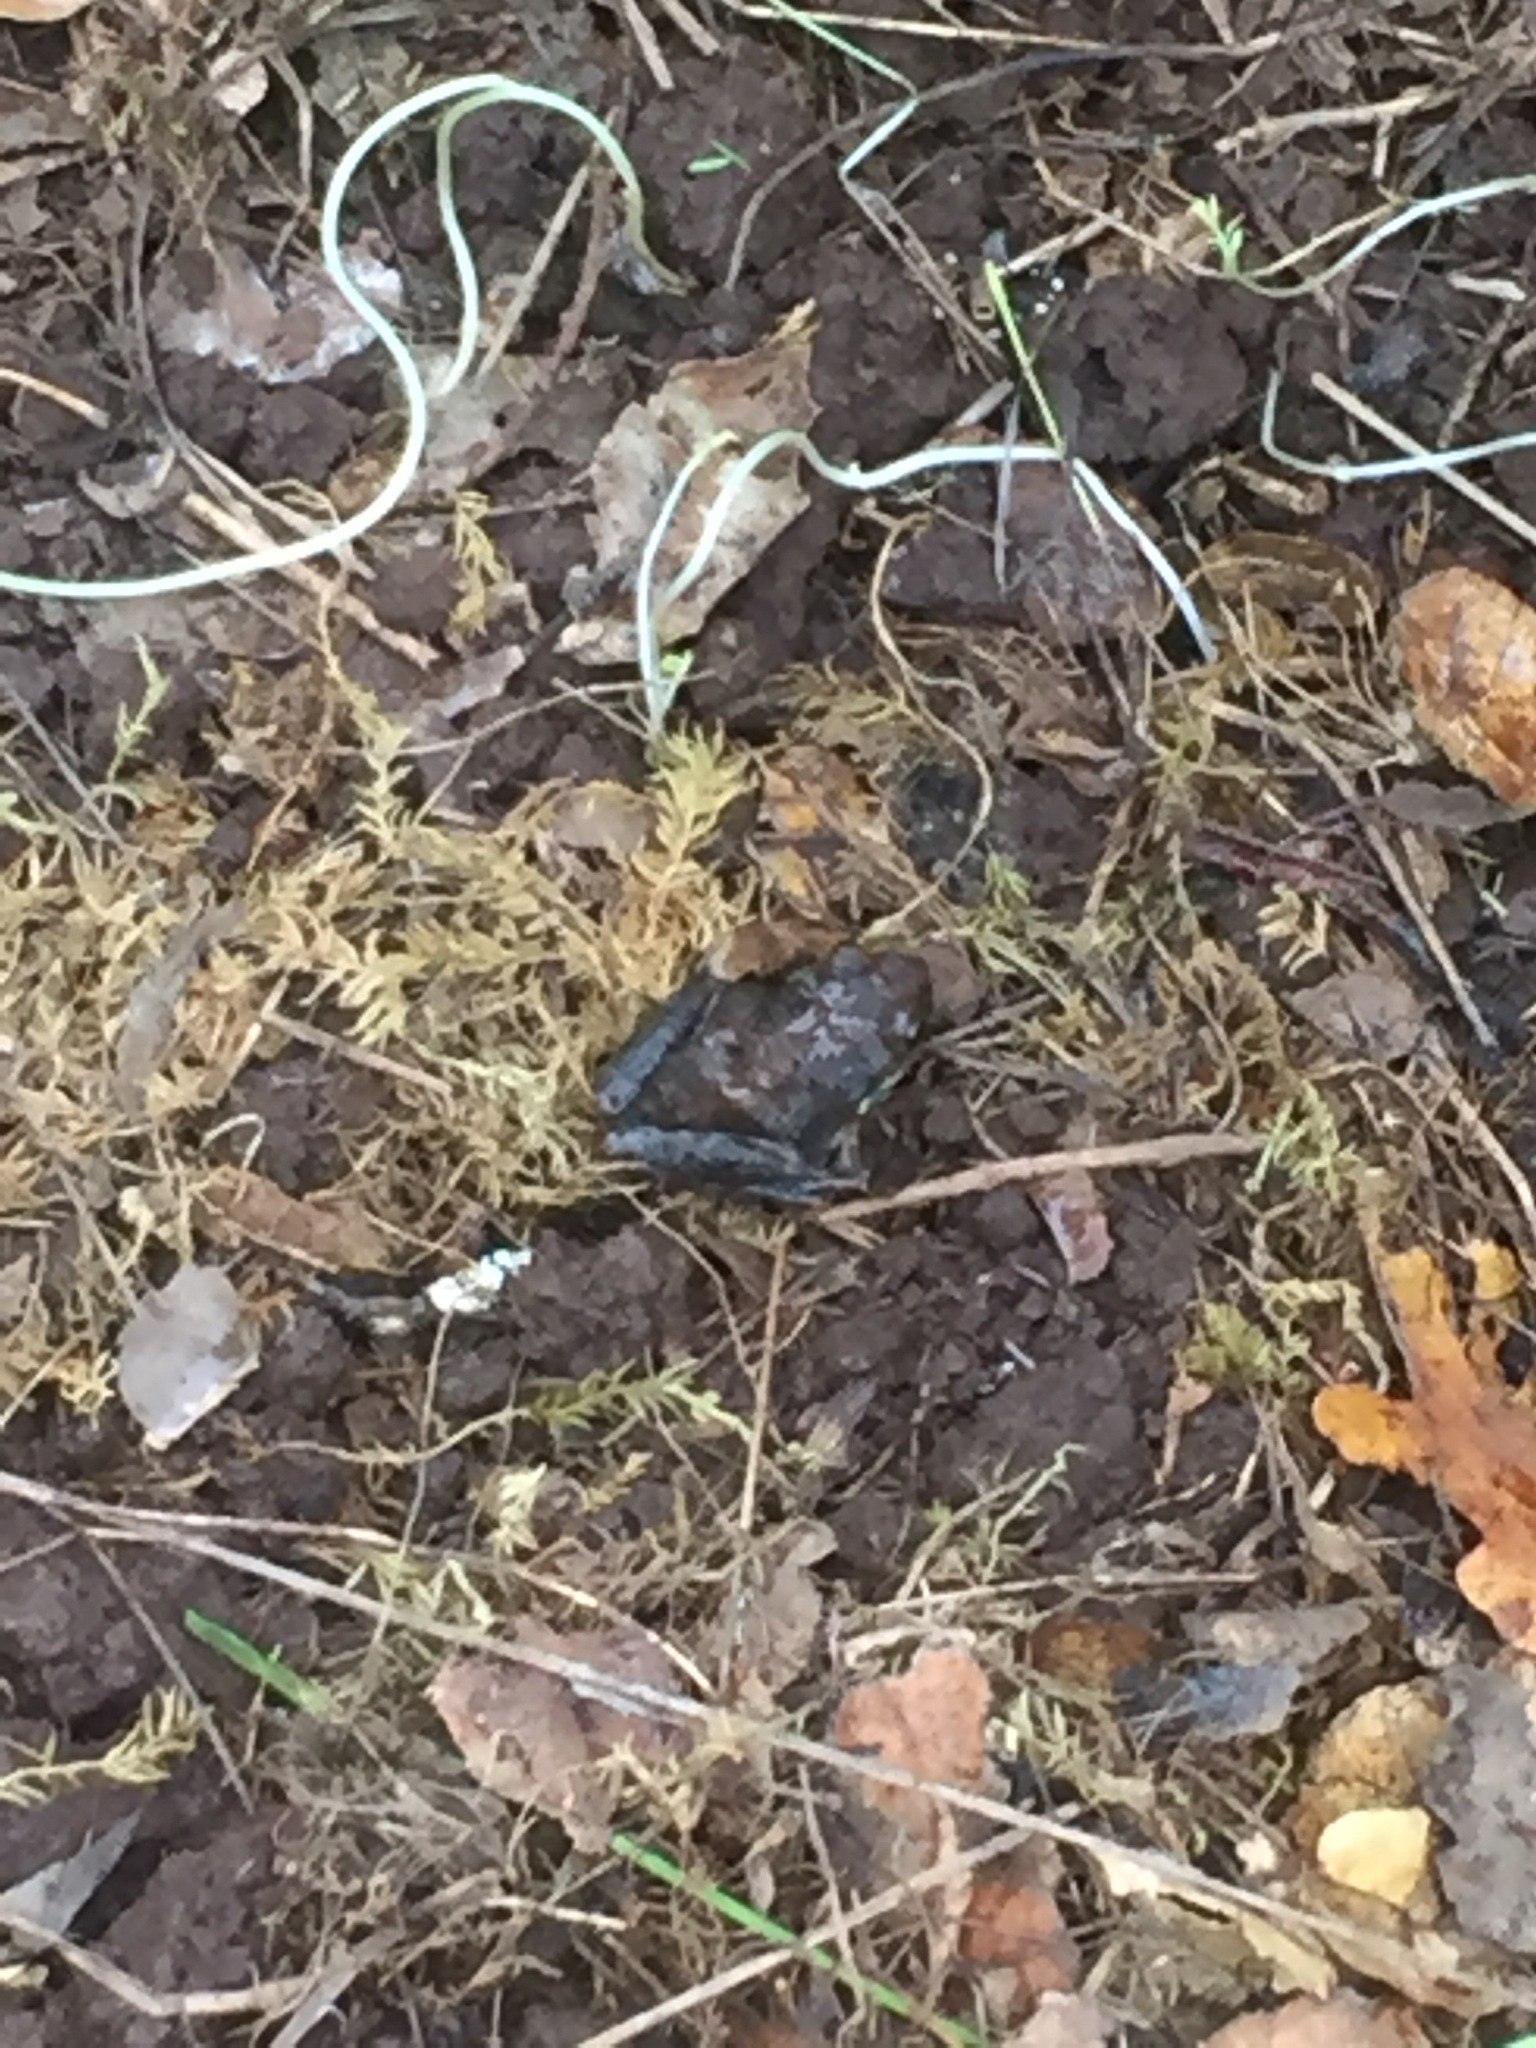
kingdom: Animalia
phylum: Chordata
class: Amphibia
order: Anura
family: Hylidae
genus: Pseudacris
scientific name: Pseudacris regilla
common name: Pacific chorus frog
